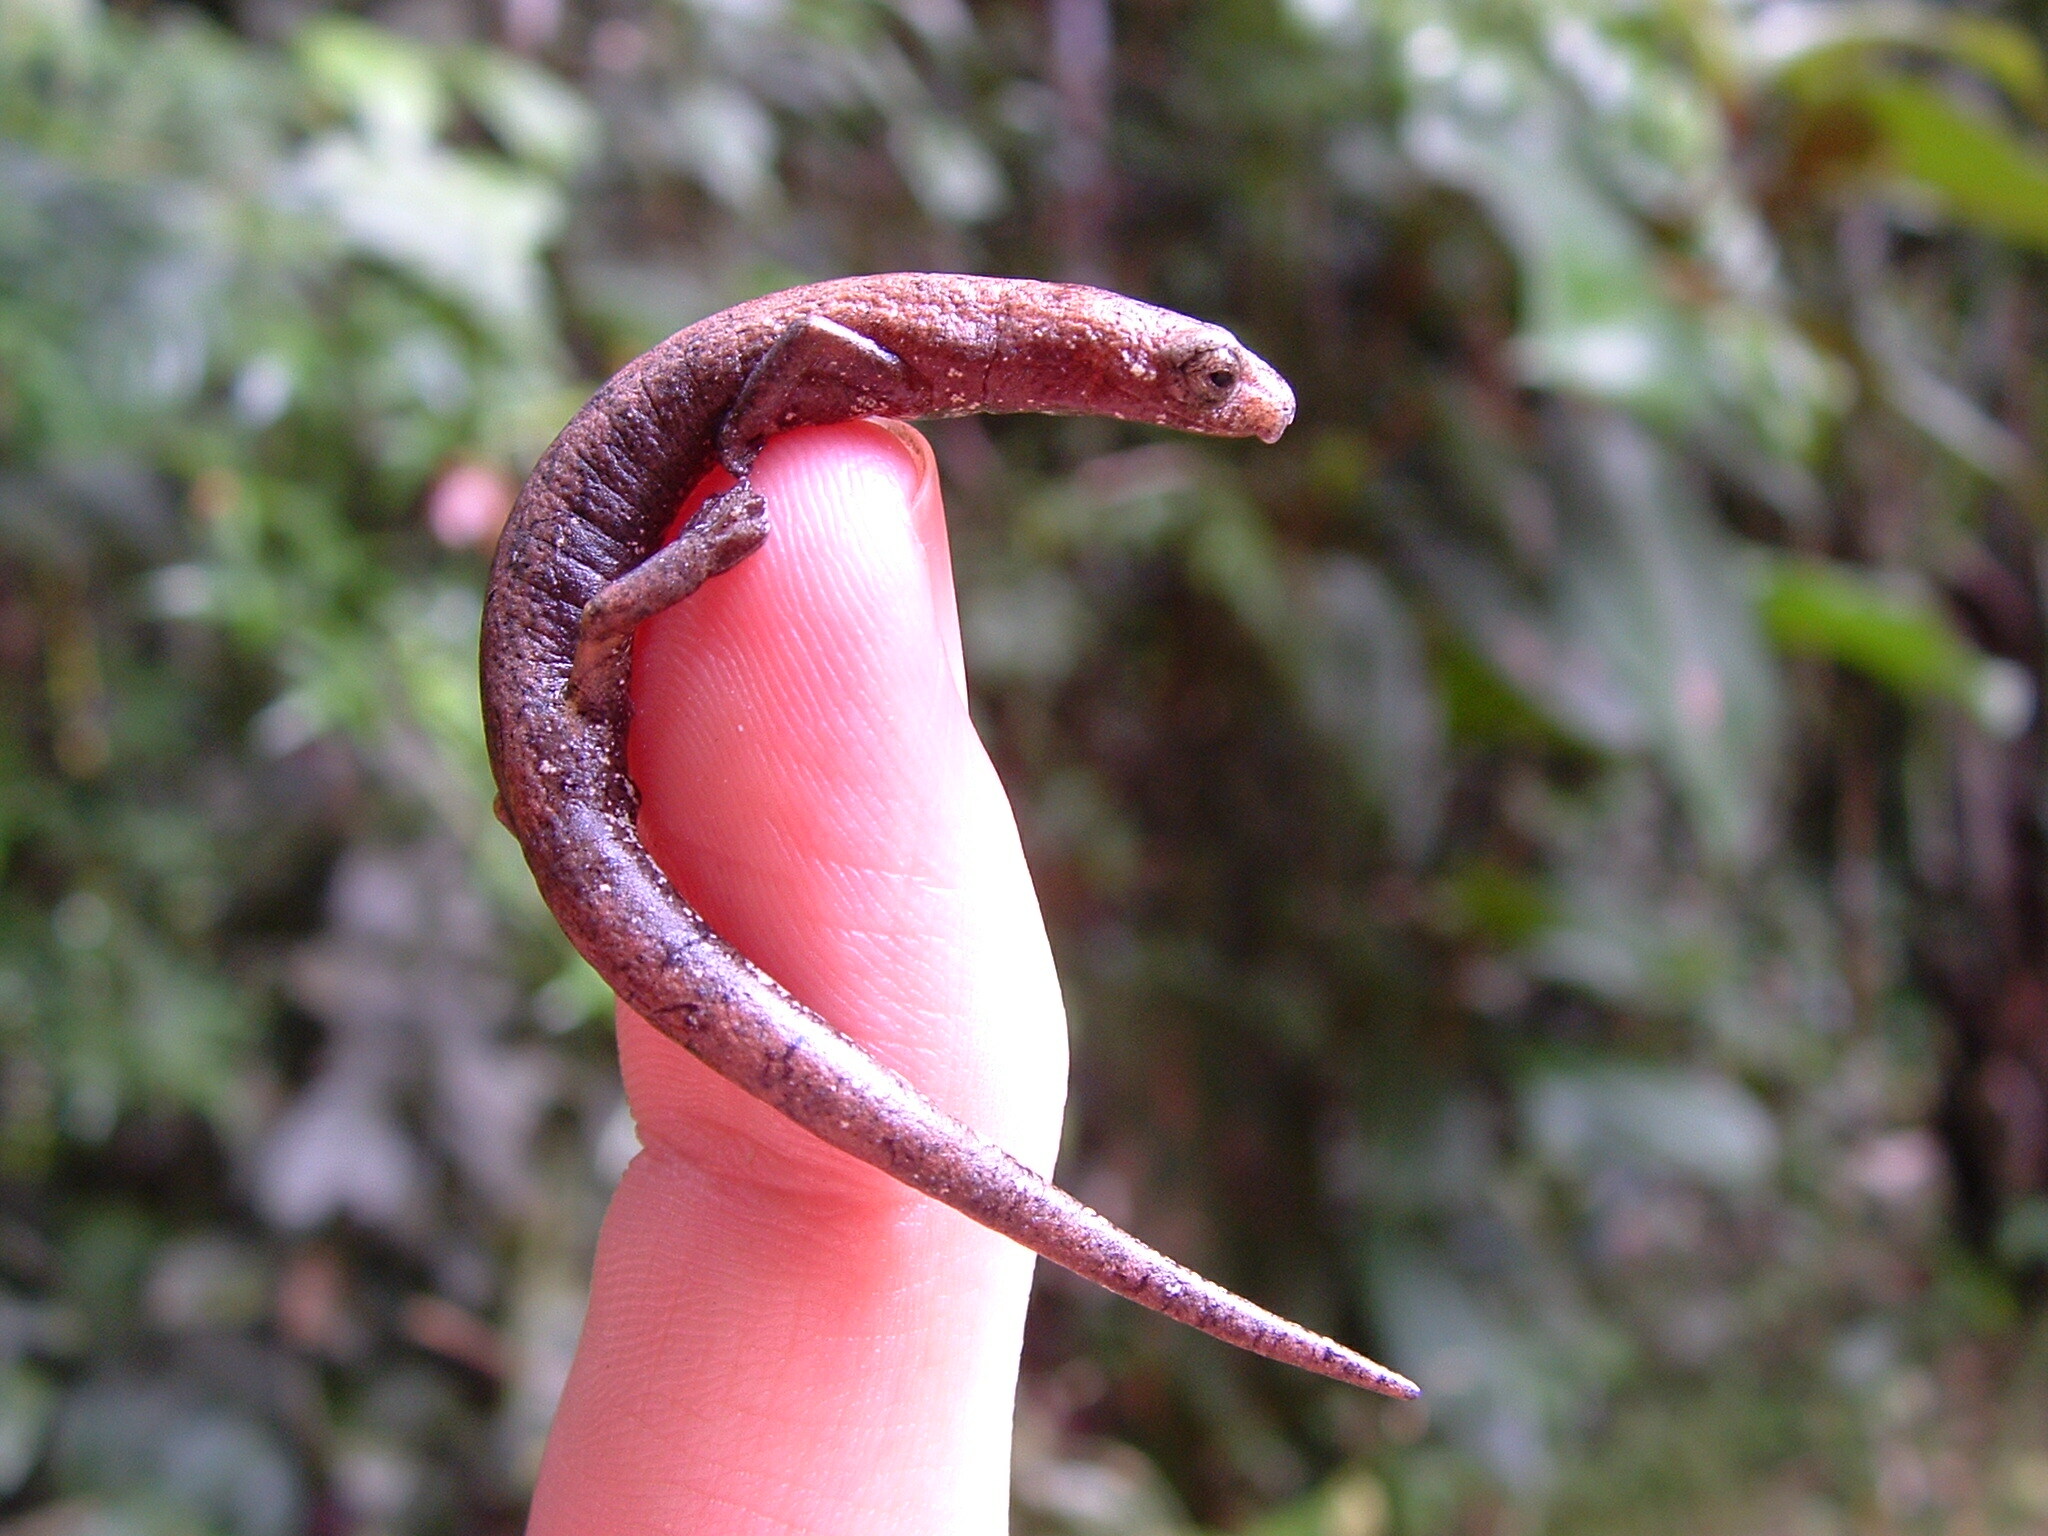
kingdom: Animalia
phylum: Chordata
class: Amphibia
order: Caudata
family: Plethodontidae
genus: Bolitoglossa
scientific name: Bolitoglossa peruviana
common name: Peru mushroomtongue salamander
